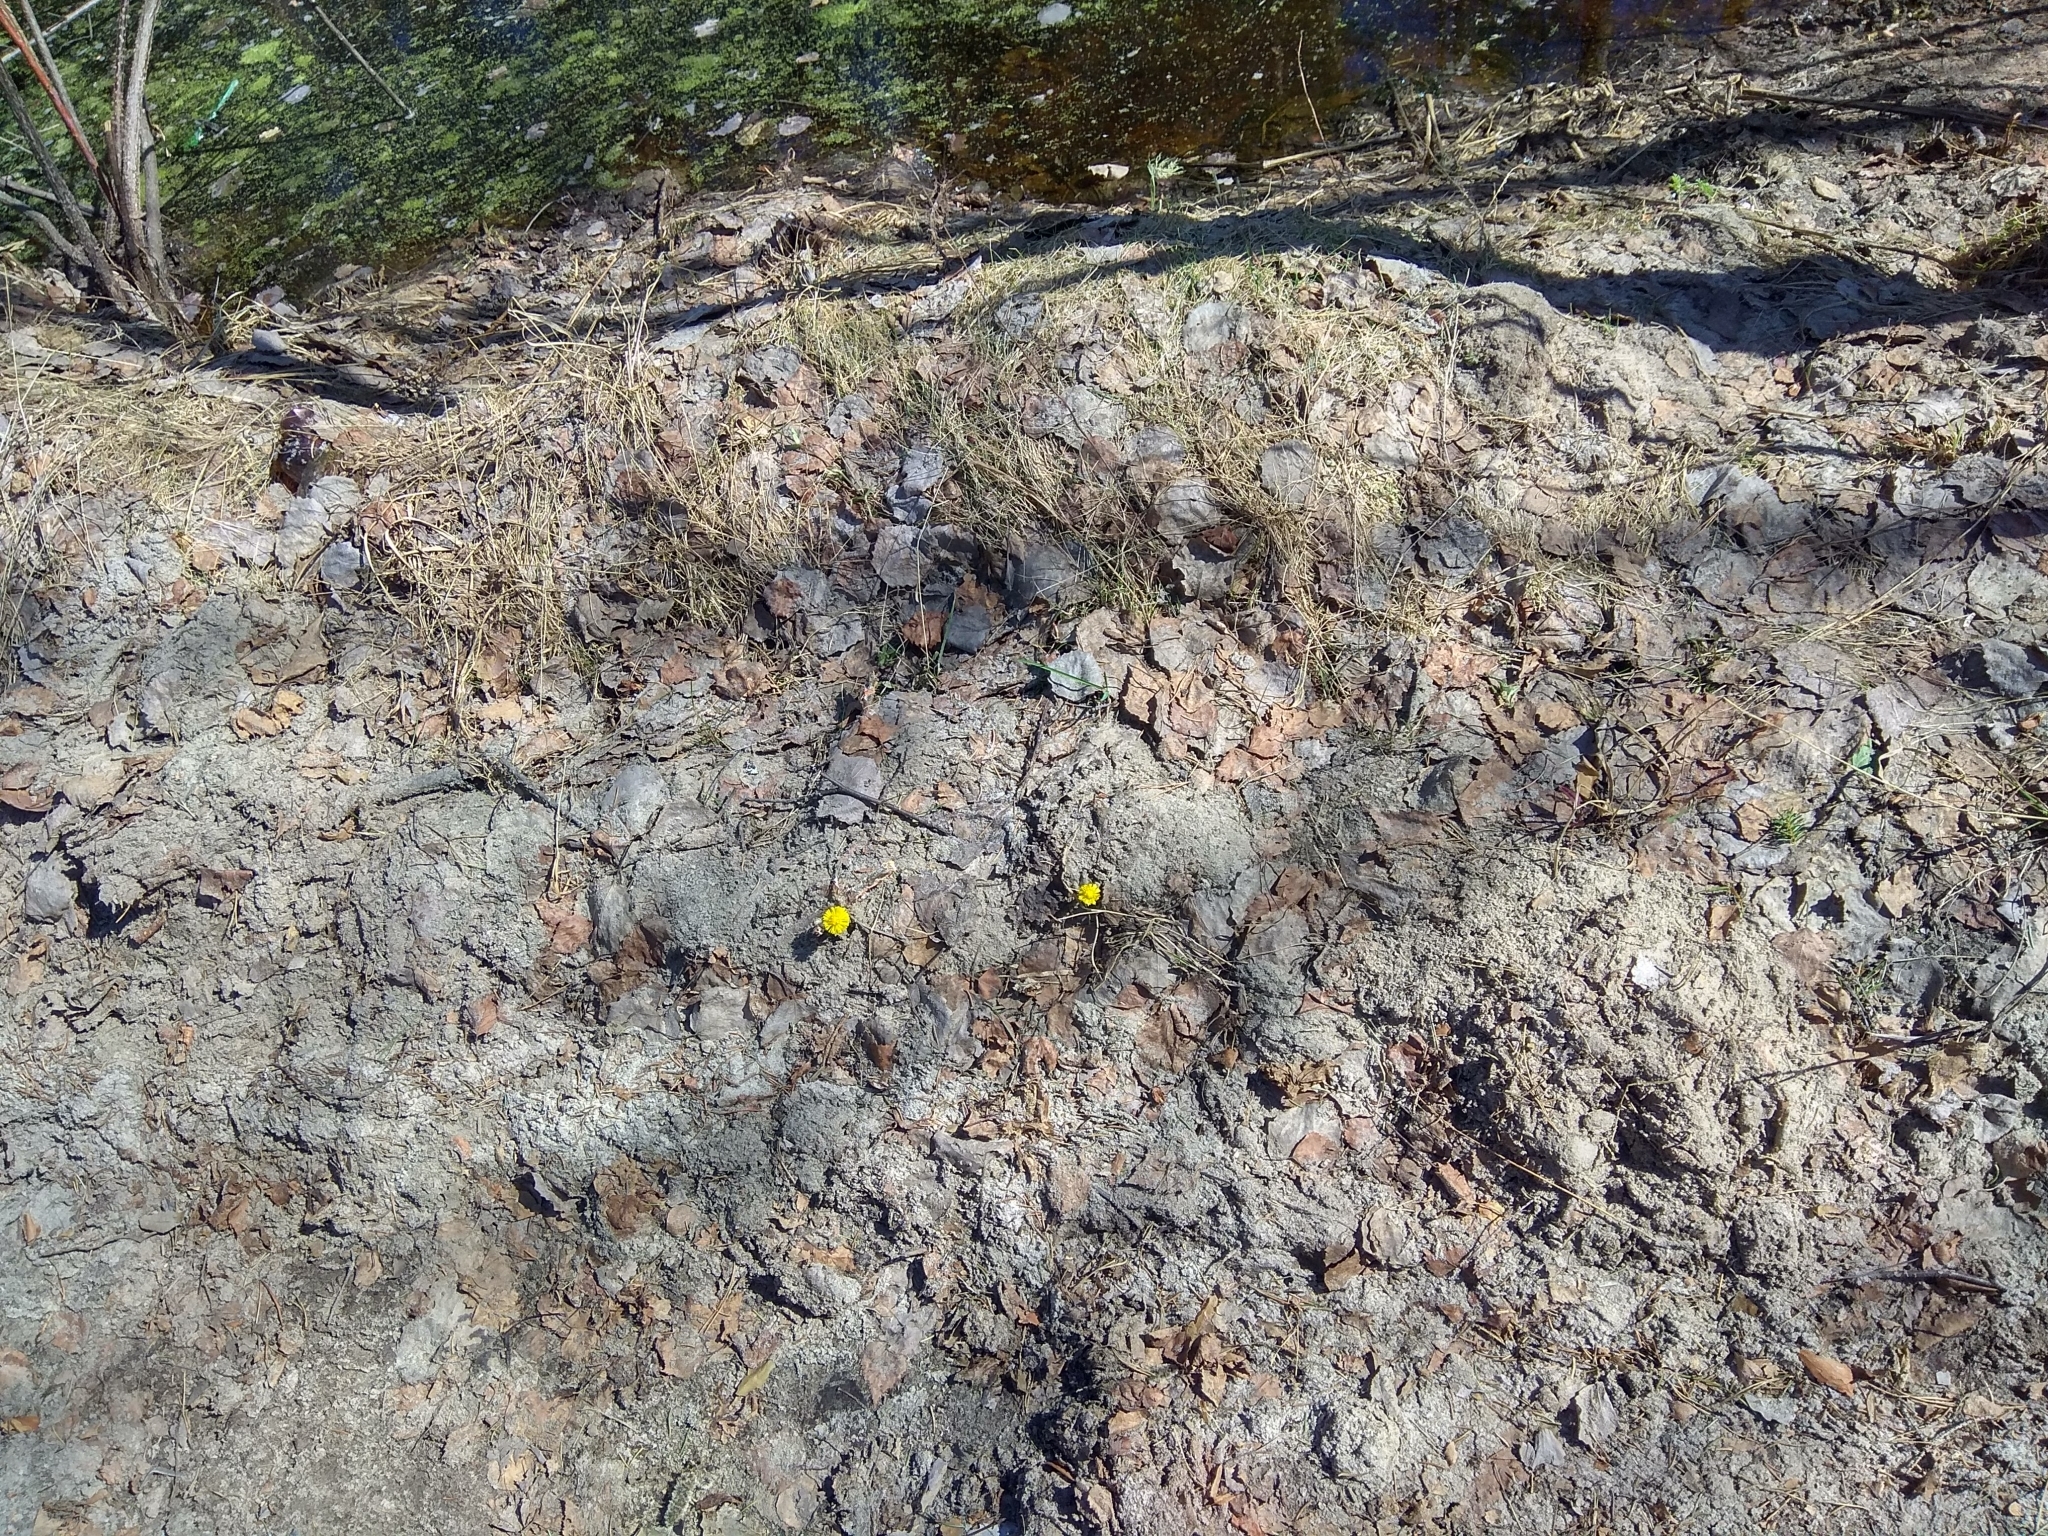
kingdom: Plantae
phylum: Tracheophyta
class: Magnoliopsida
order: Asterales
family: Asteraceae
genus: Tussilago
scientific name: Tussilago farfara
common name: Coltsfoot
